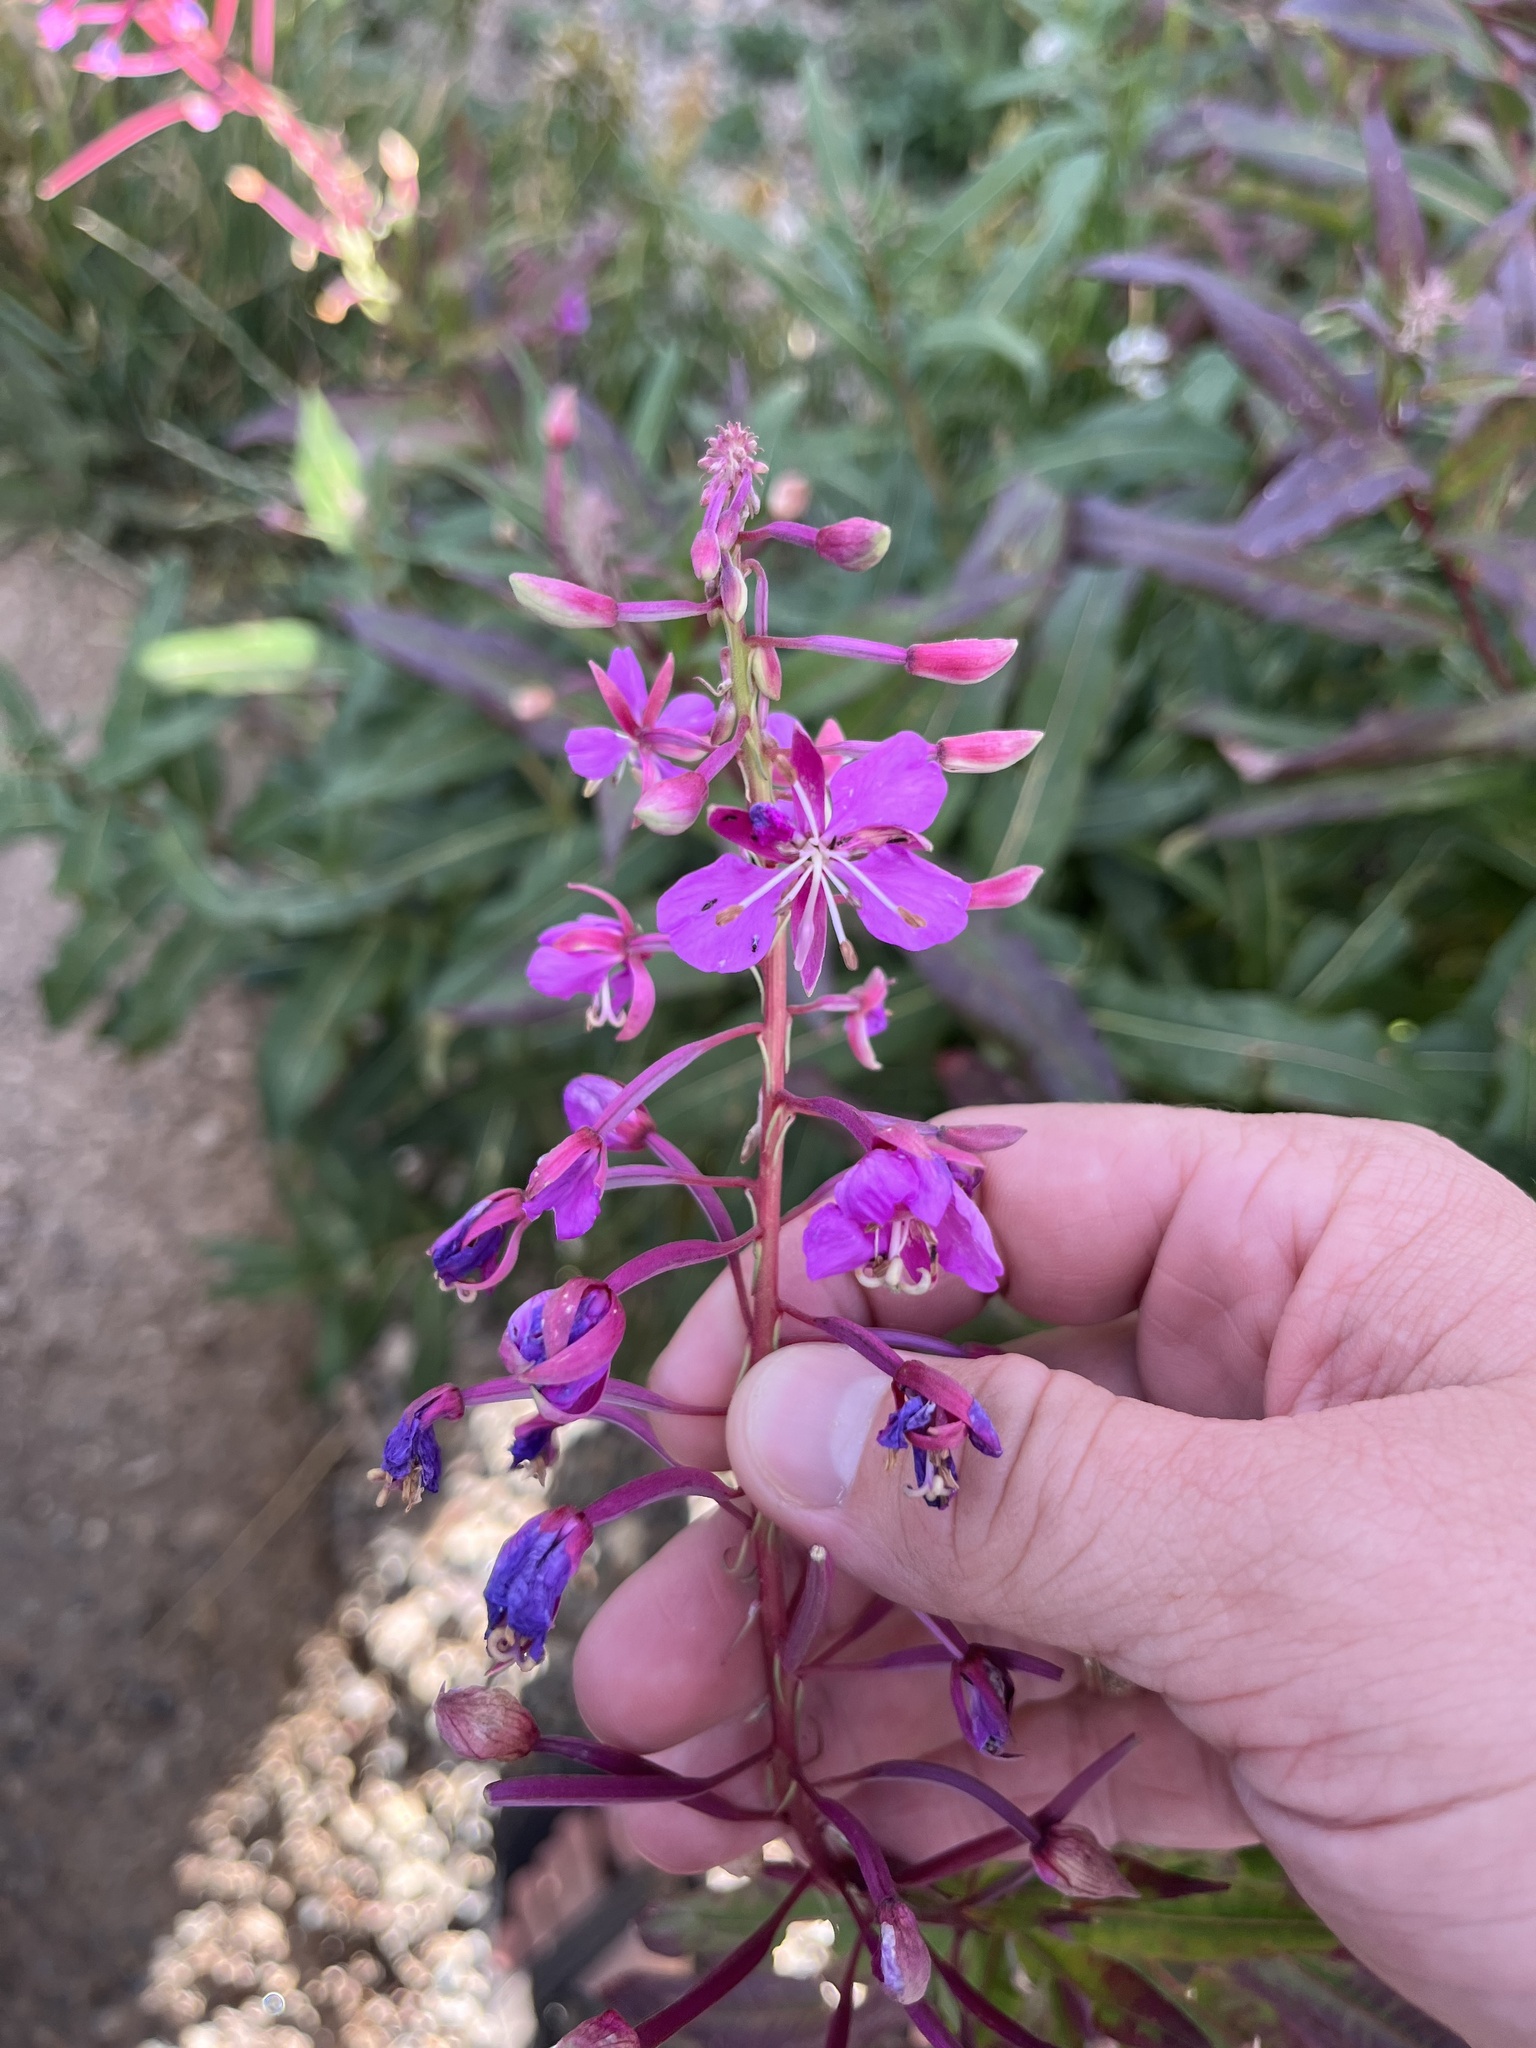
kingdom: Plantae
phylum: Tracheophyta
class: Magnoliopsida
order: Myrtales
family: Onagraceae
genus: Chamaenerion
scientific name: Chamaenerion angustifolium
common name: Fireweed
